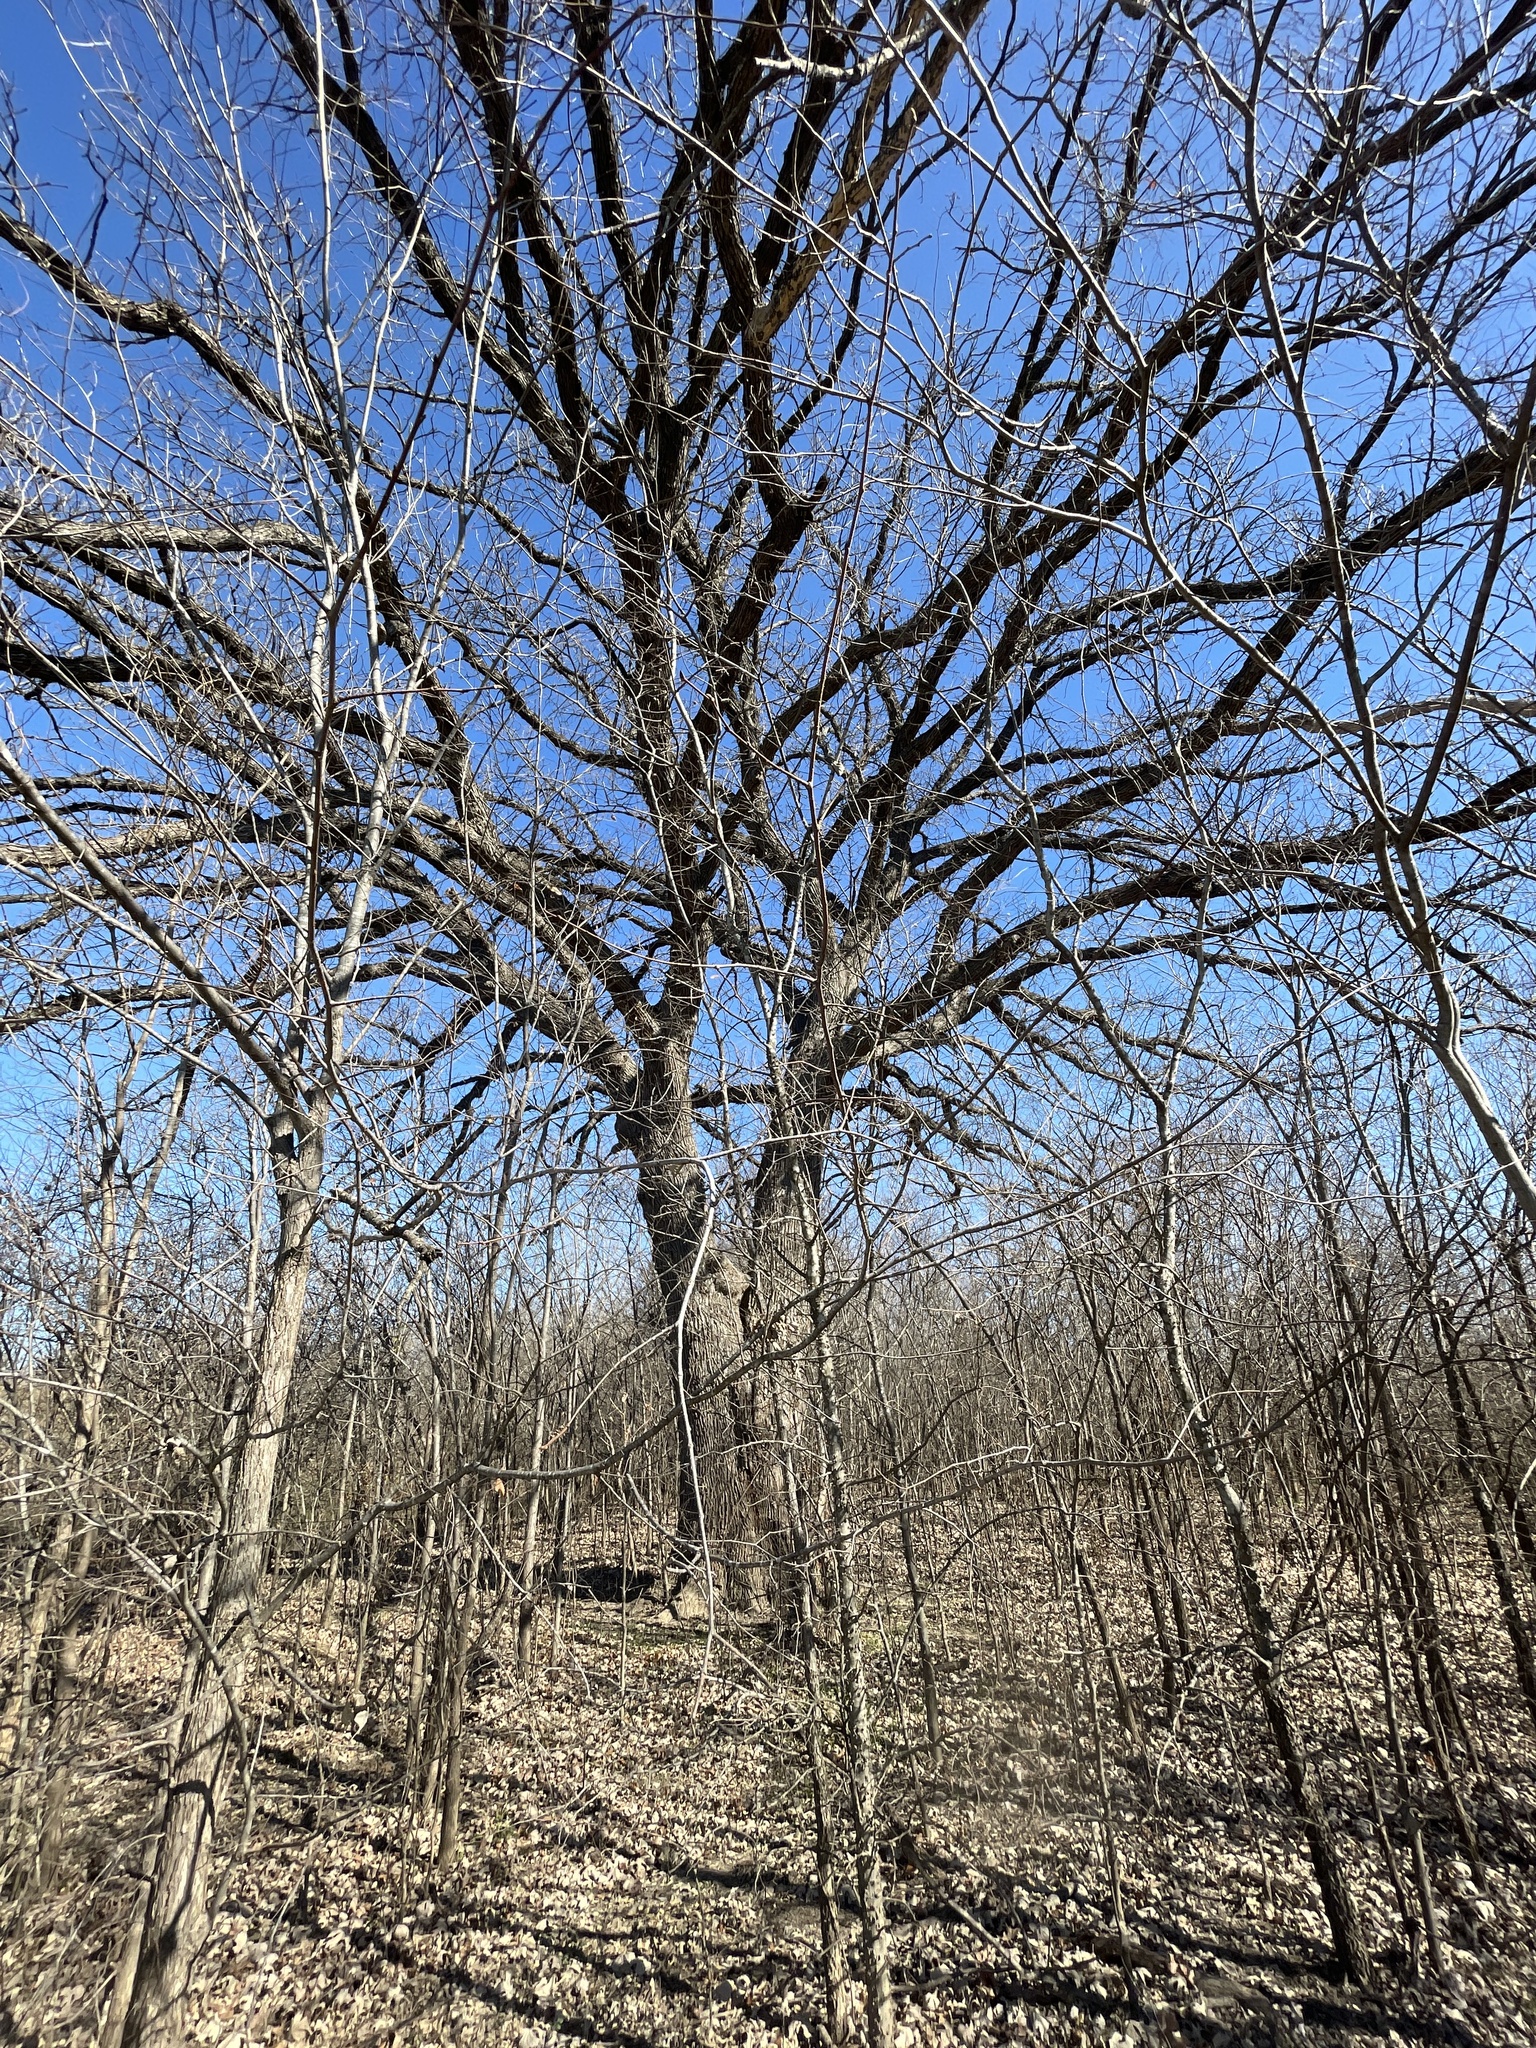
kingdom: Plantae
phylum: Tracheophyta
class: Magnoliopsida
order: Fagales
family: Fagaceae
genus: Quercus
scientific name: Quercus macrocarpa
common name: Bur oak
